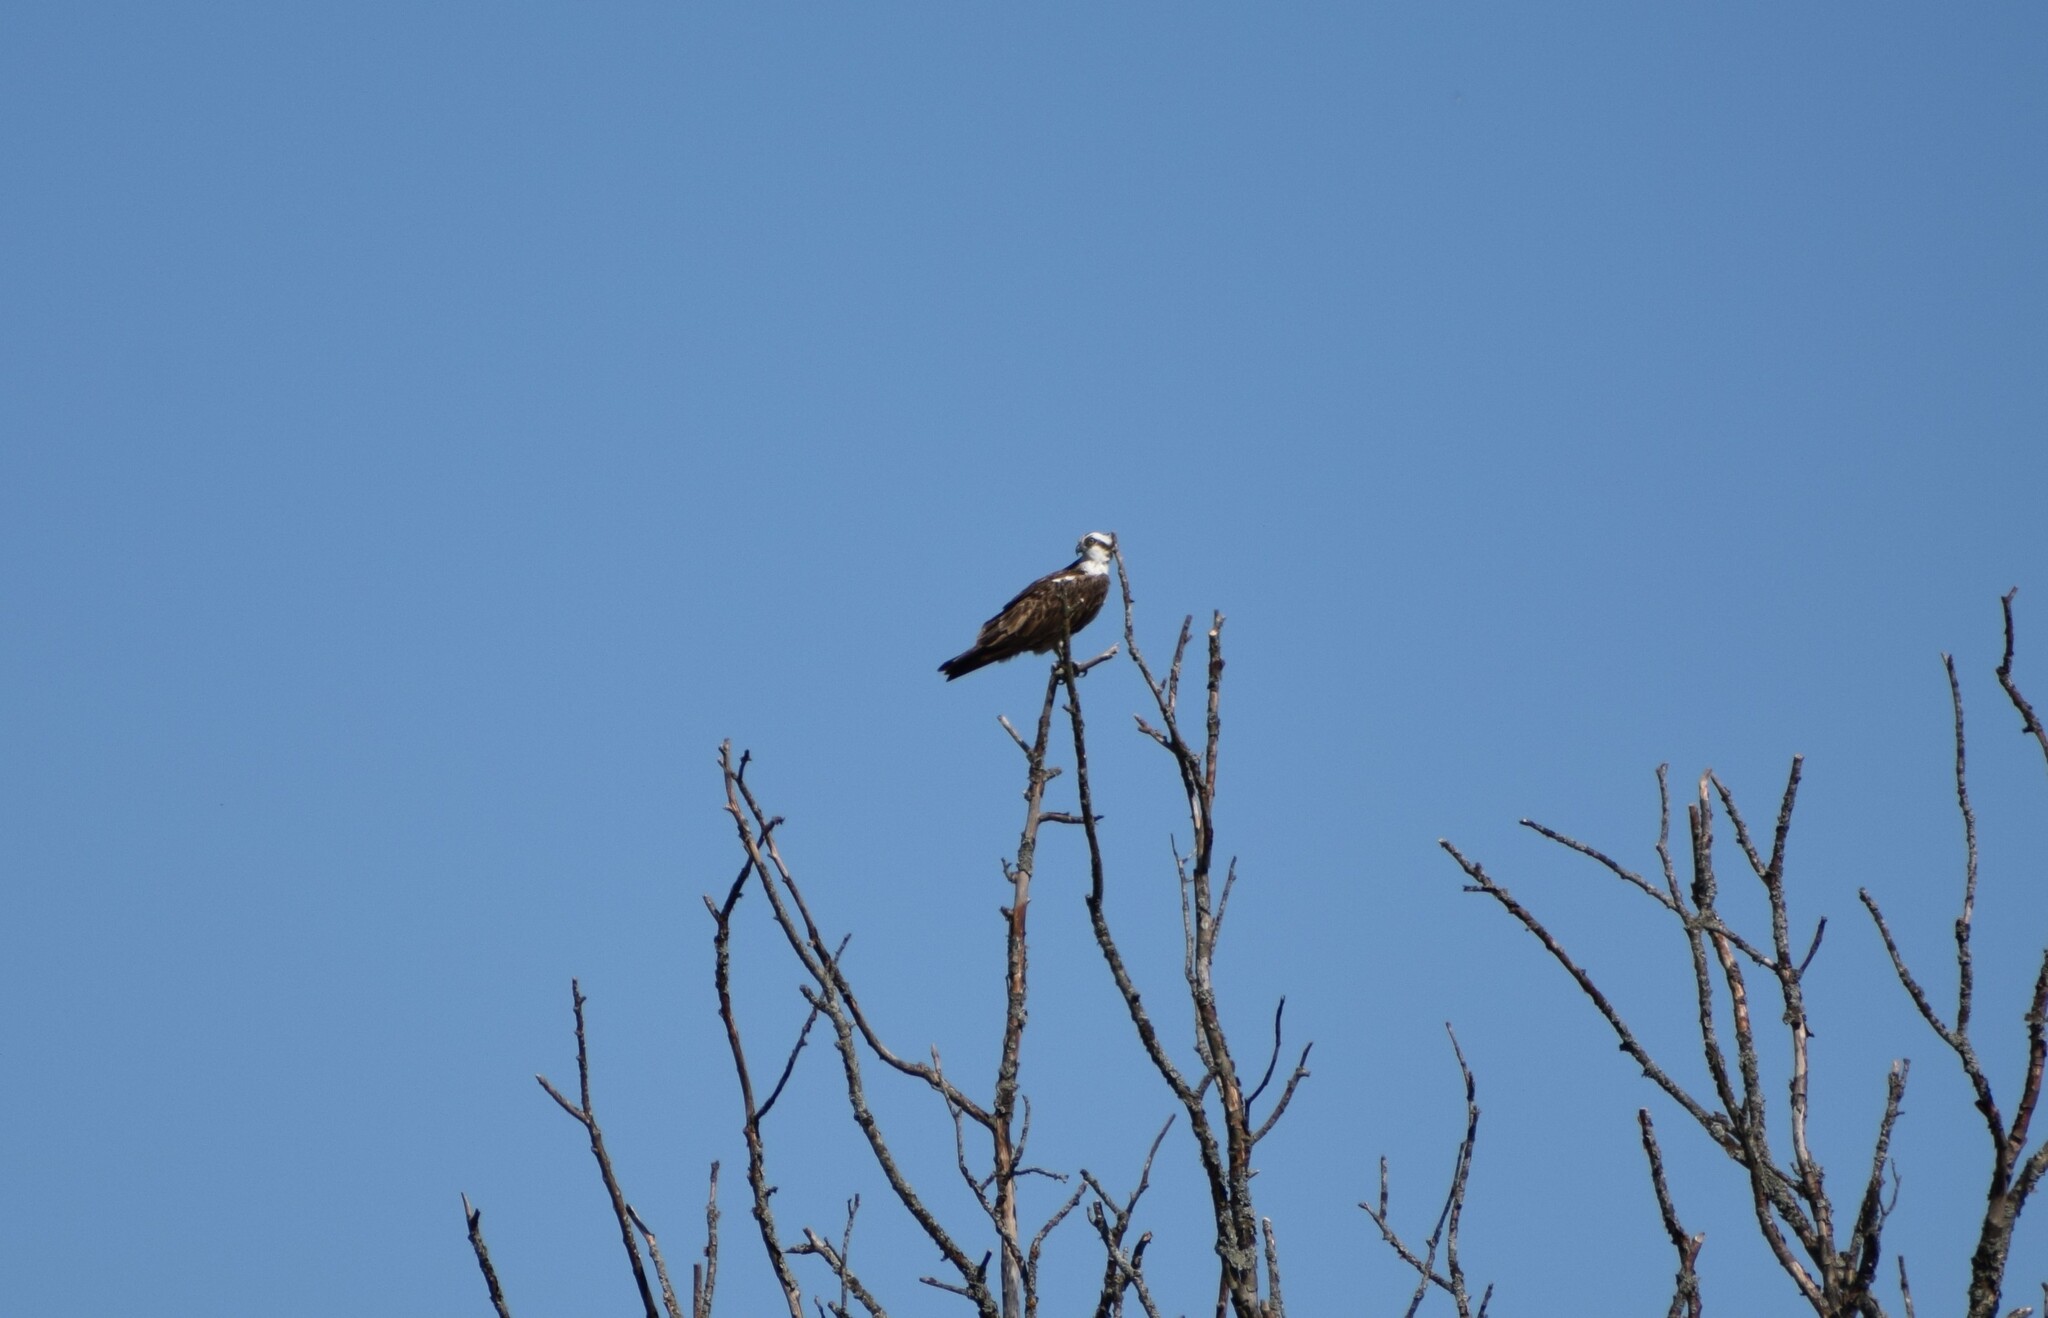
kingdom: Animalia
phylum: Chordata
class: Aves
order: Accipitriformes
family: Pandionidae
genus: Pandion
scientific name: Pandion haliaetus
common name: Osprey
